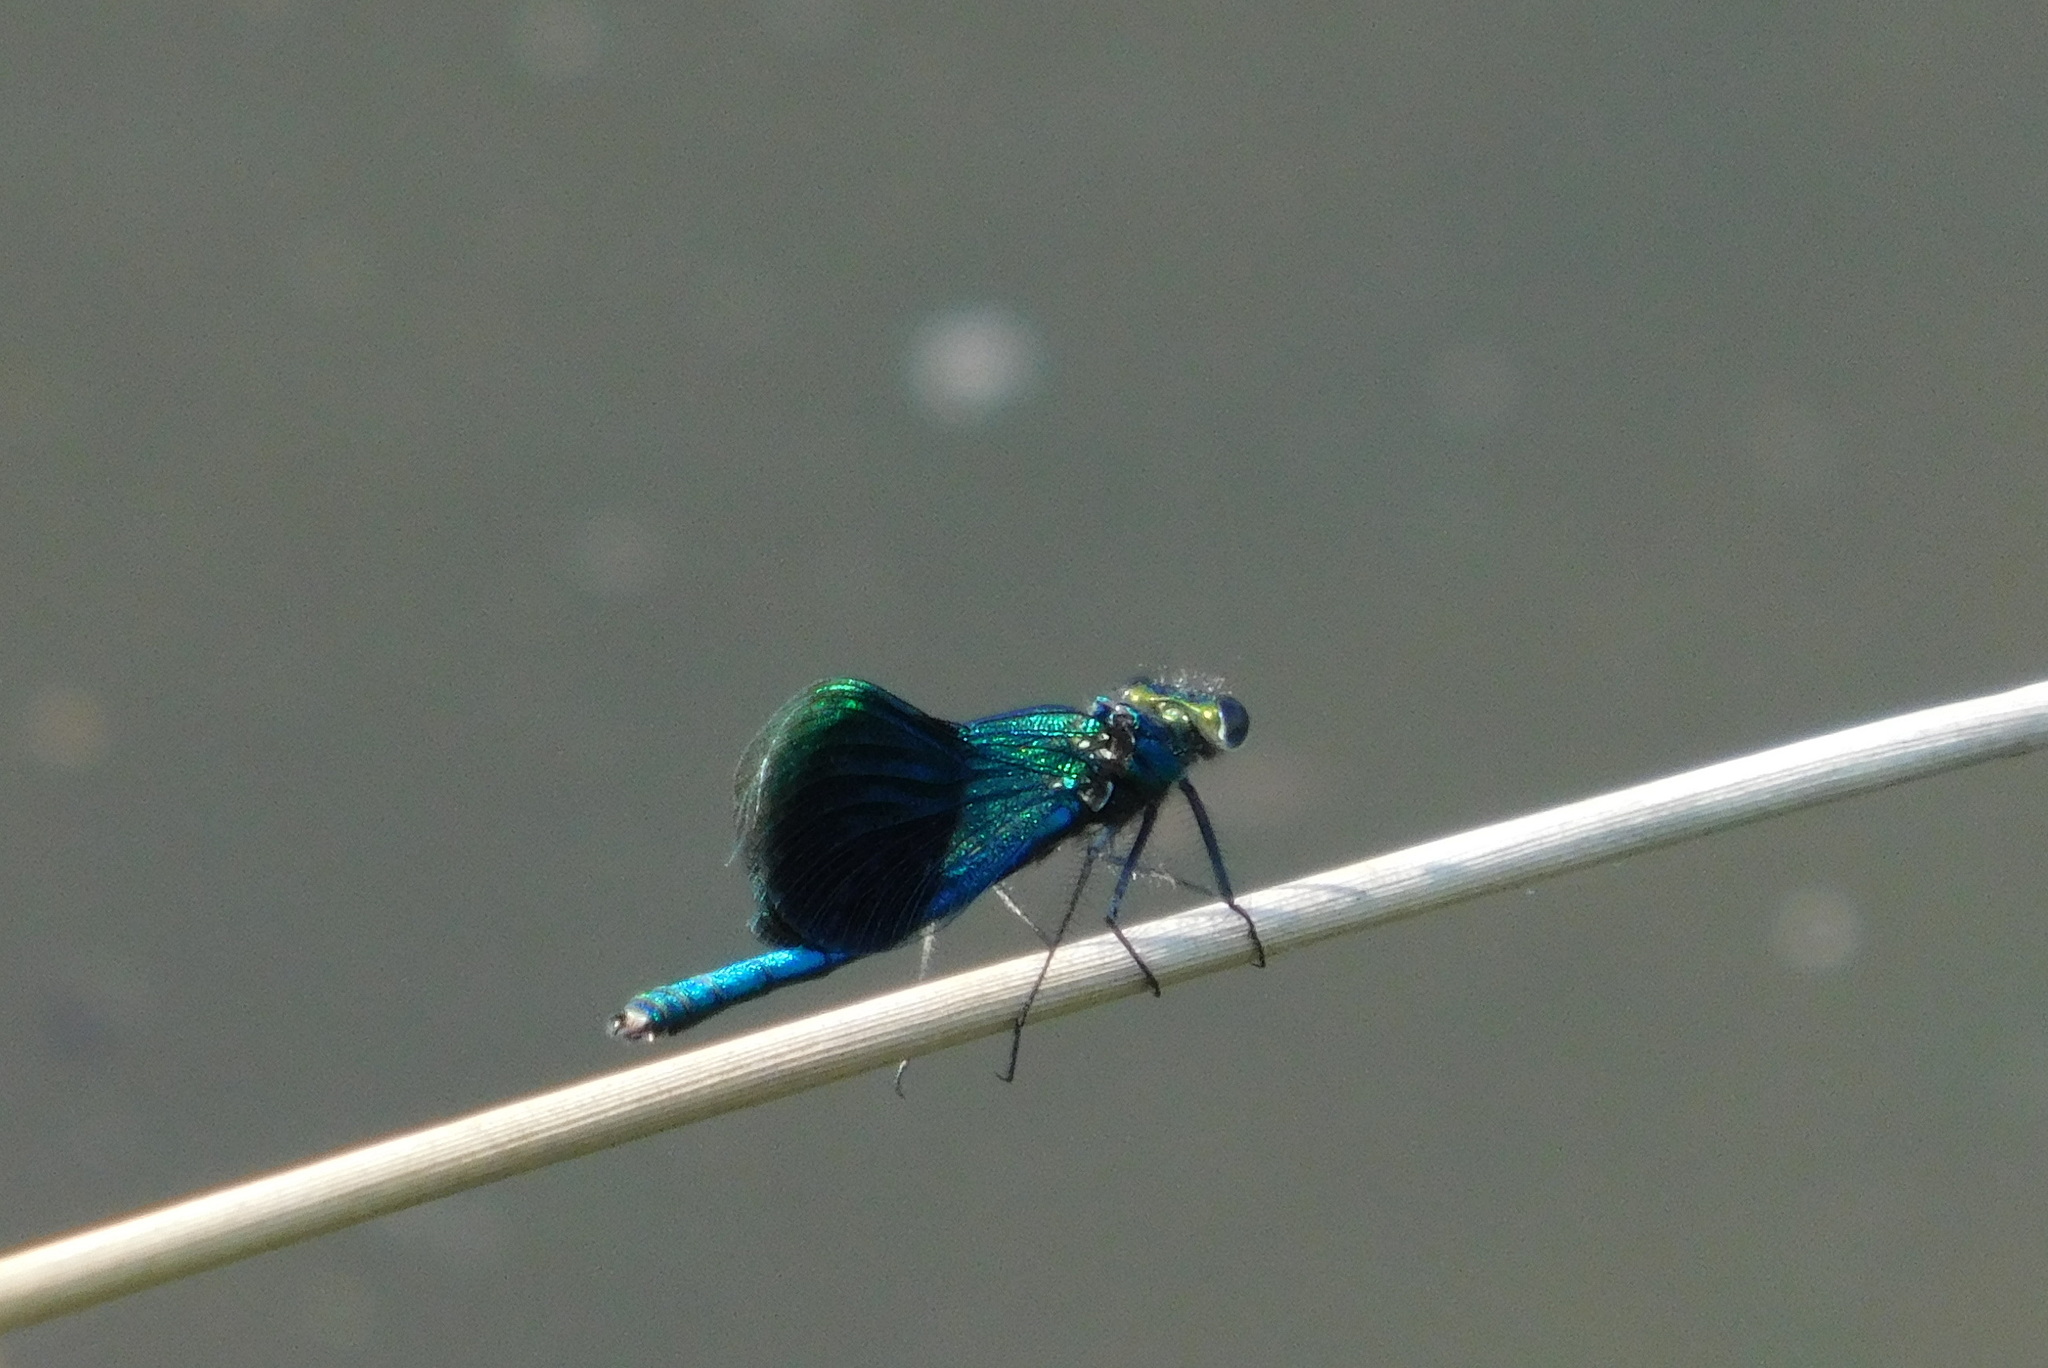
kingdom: Animalia
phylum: Arthropoda
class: Insecta
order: Odonata
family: Calopterygidae
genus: Calopteryx
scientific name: Calopteryx splendens
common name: Banded demoiselle
